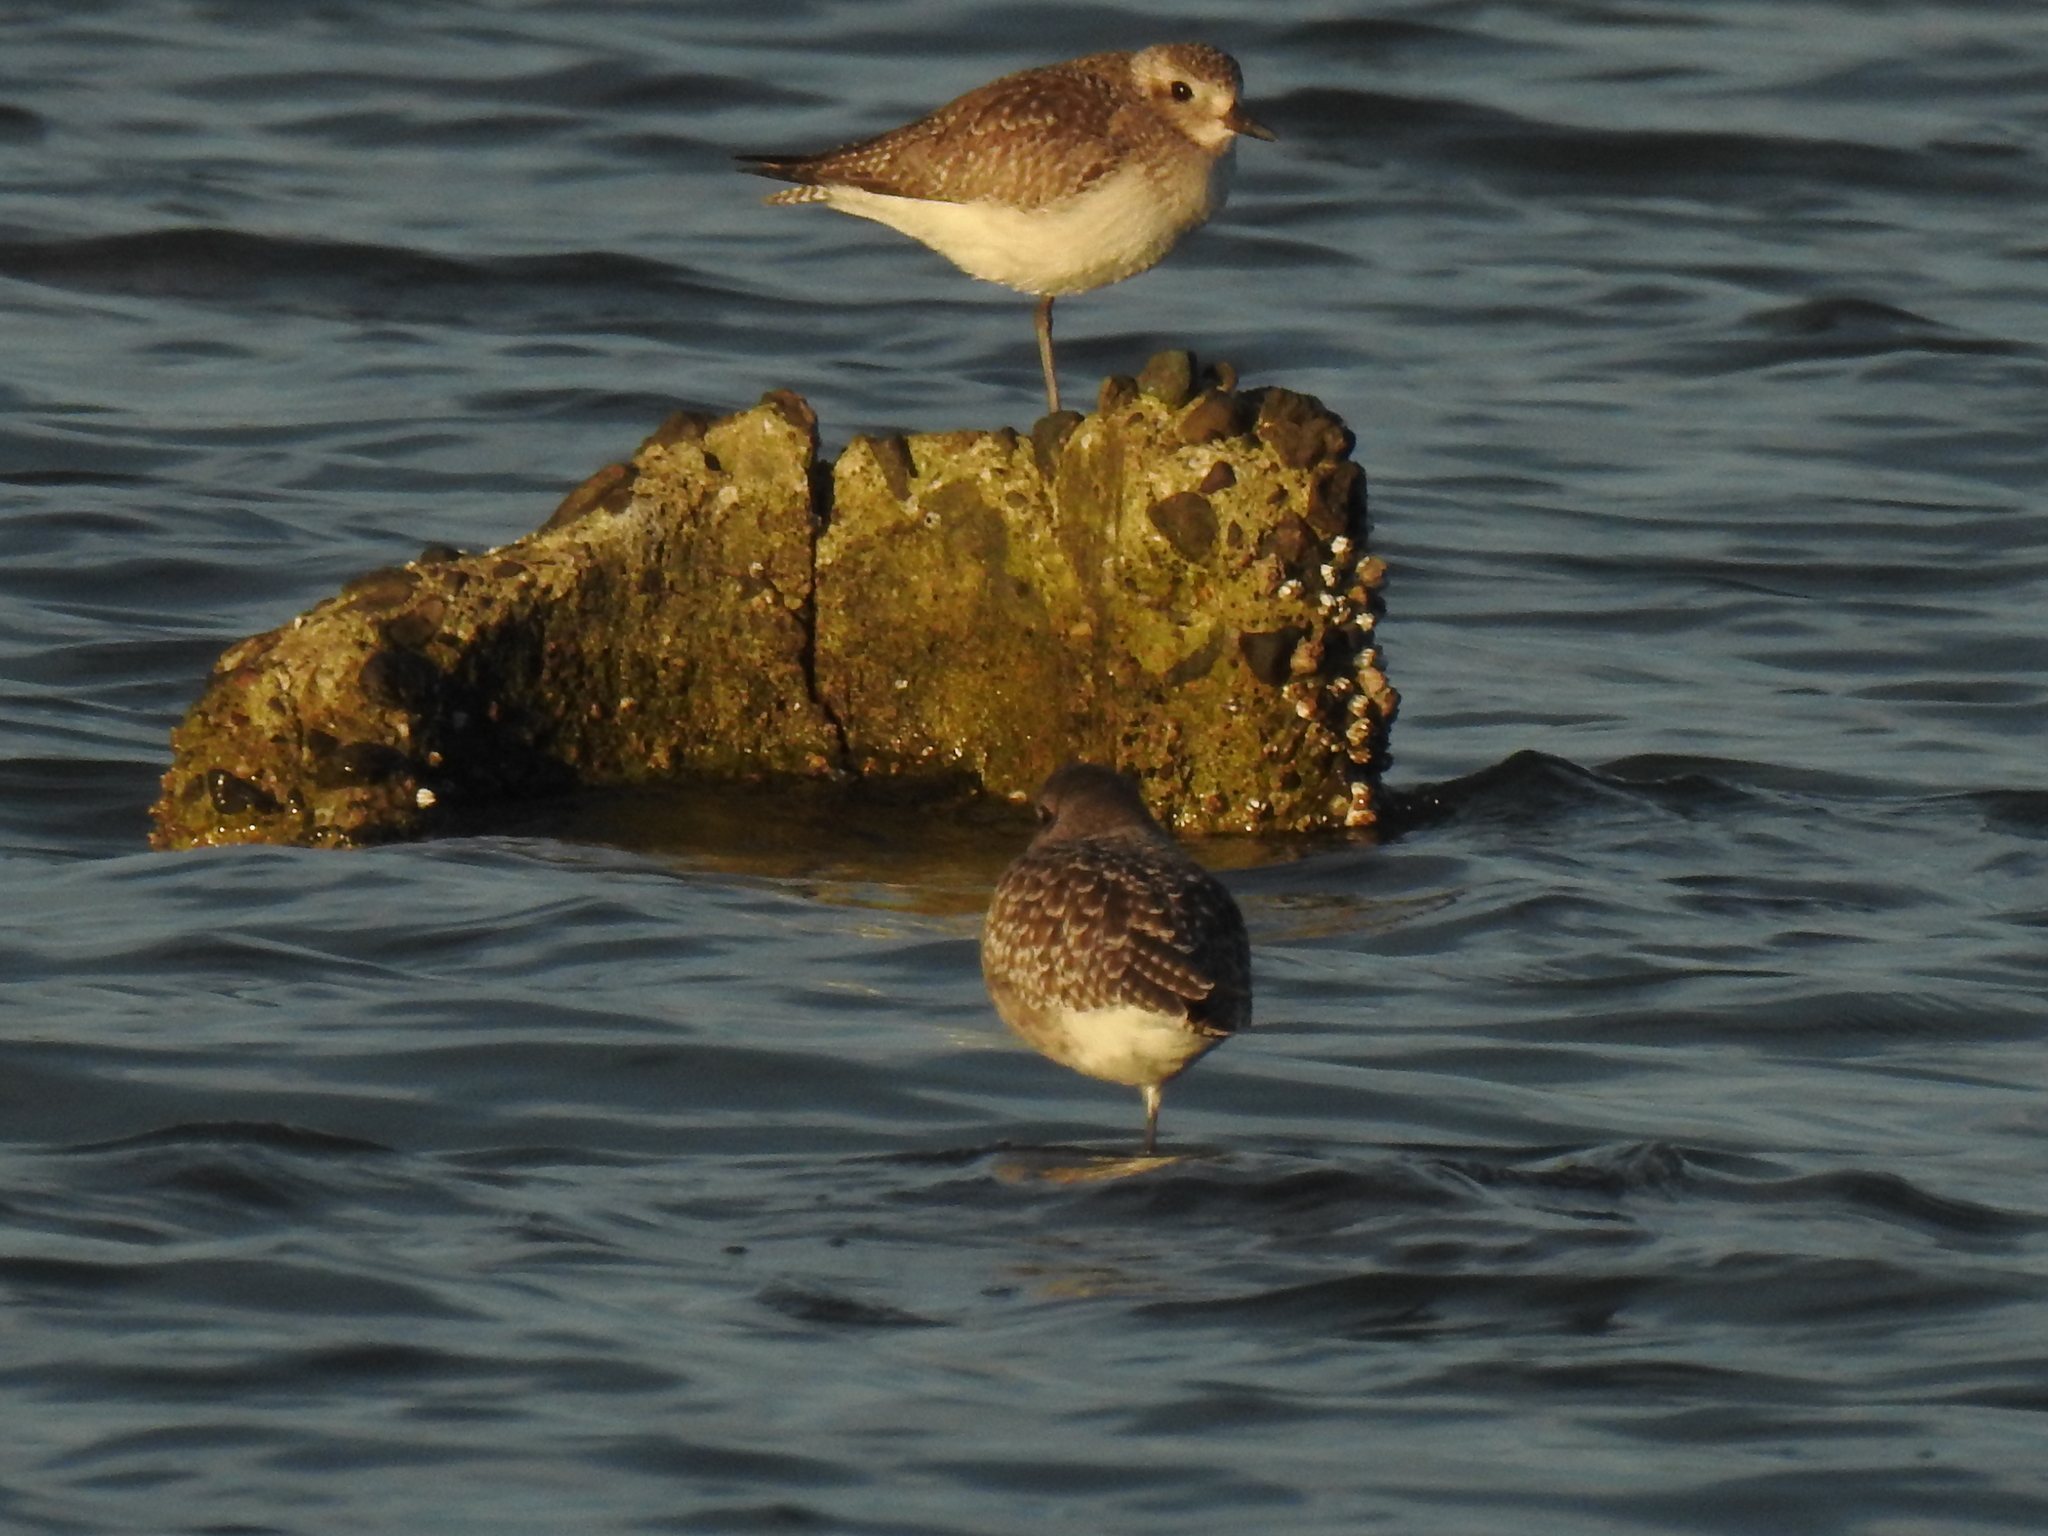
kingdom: Animalia
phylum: Chordata
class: Aves
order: Charadriiformes
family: Charadriidae
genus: Pluvialis
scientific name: Pluvialis squatarola
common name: Grey plover
